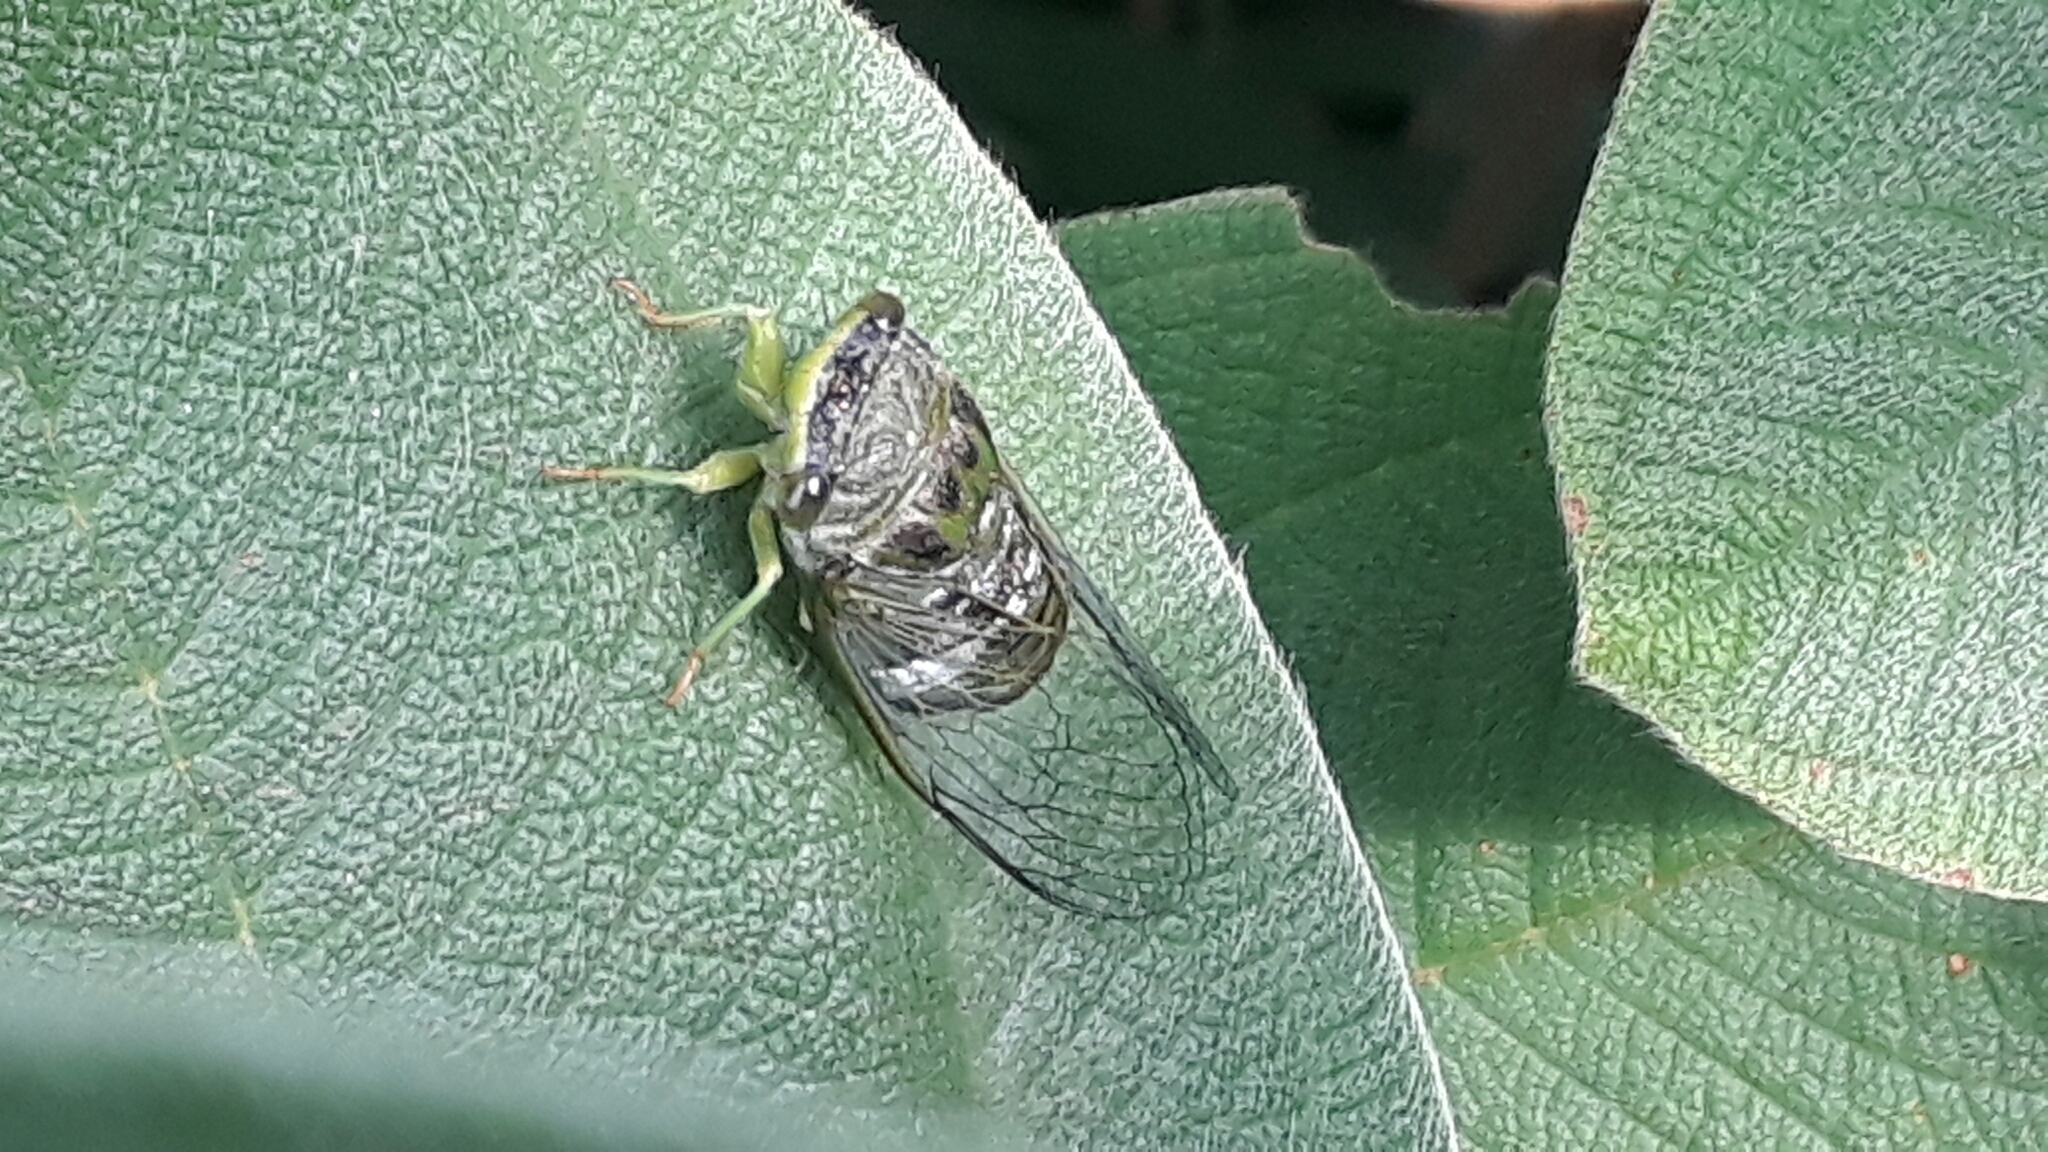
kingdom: Animalia
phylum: Arthropoda
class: Insecta
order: Hemiptera
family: Cicadidae
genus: Acanthoventris
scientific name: Acanthoventris drewseni
